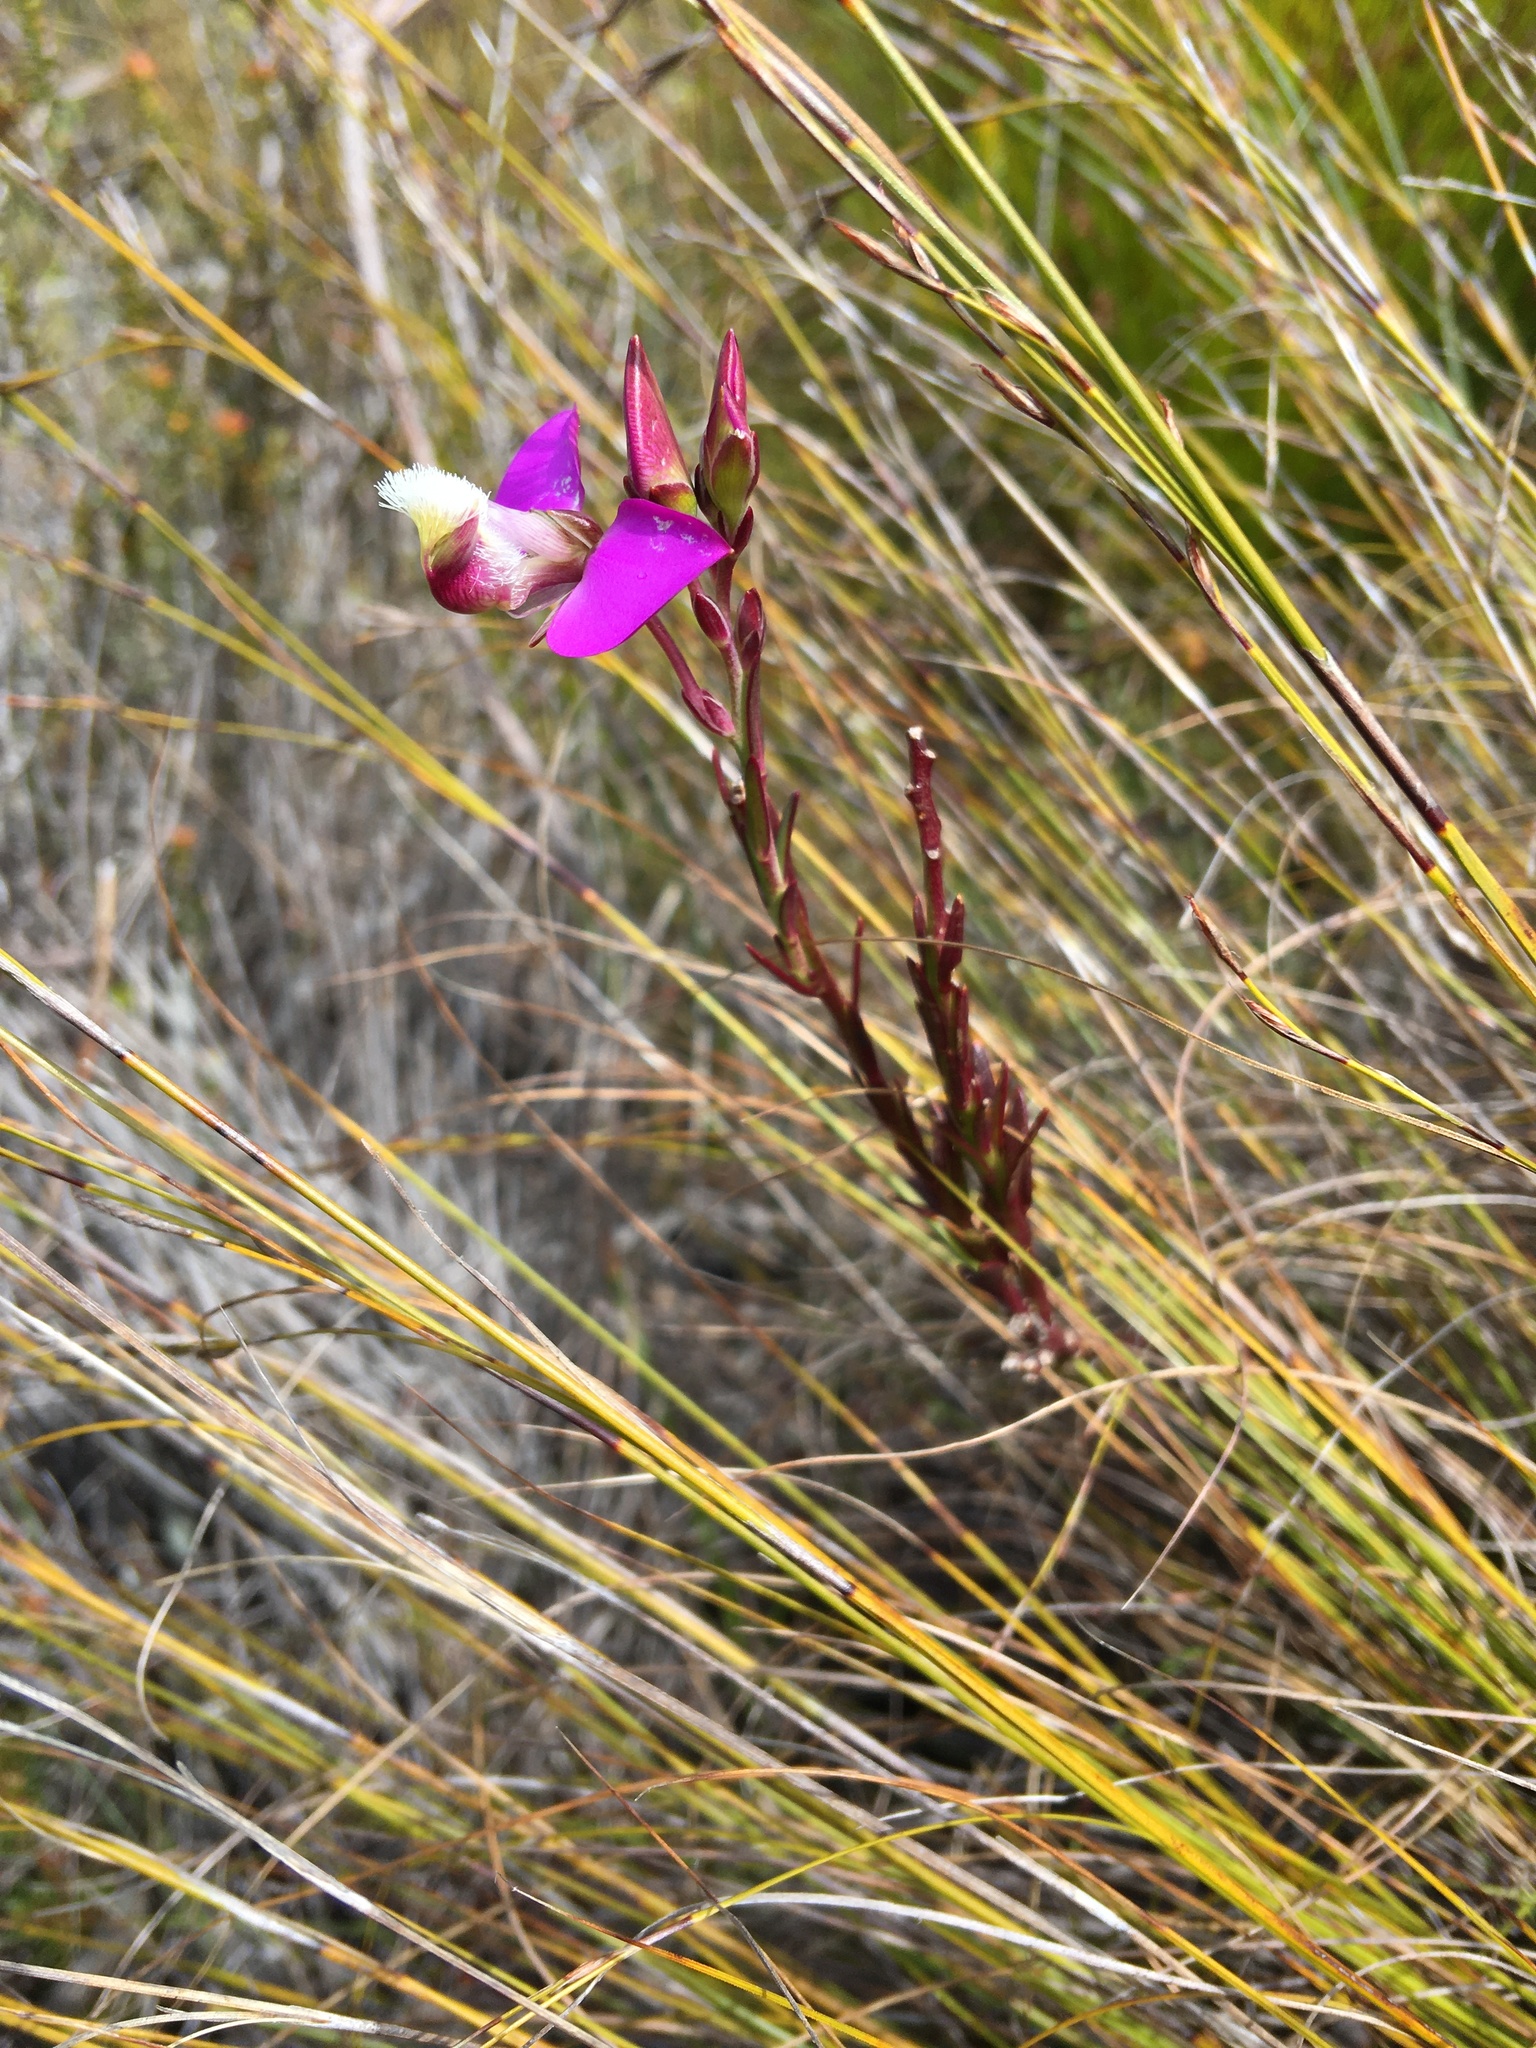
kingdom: Plantae
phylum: Tracheophyta
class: Magnoliopsida
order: Fabales
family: Polygalaceae
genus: Polygala
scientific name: Polygala bracteolata
